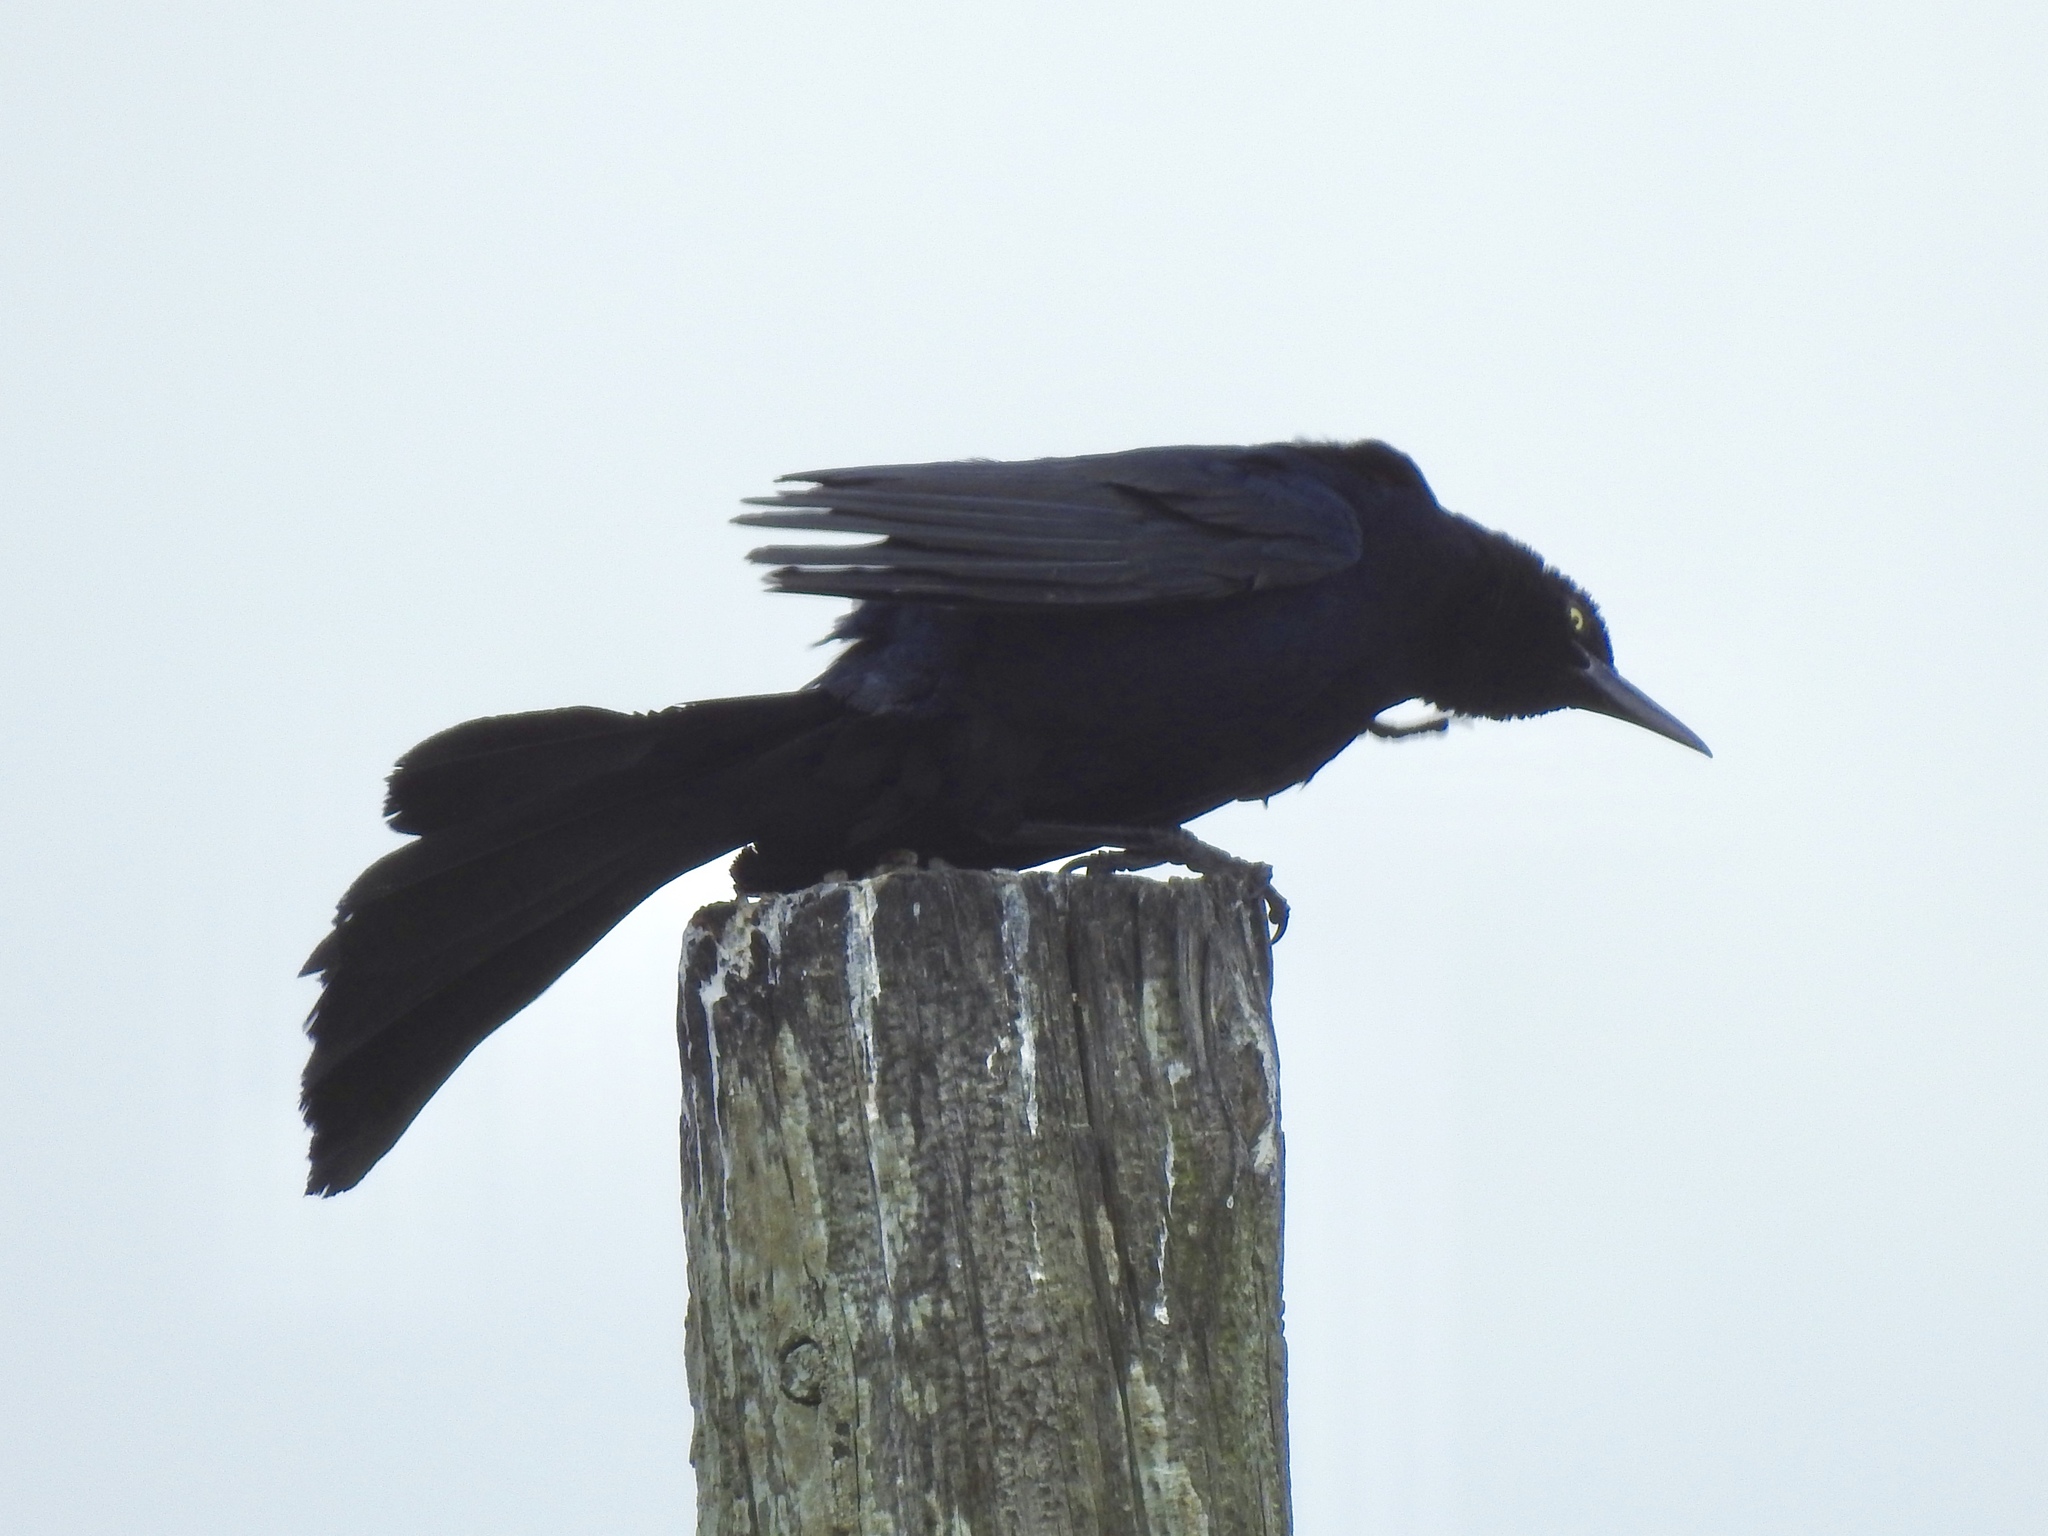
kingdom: Animalia
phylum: Chordata
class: Aves
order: Passeriformes
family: Icteridae
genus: Quiscalus
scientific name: Quiscalus mexicanus
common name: Great-tailed grackle
